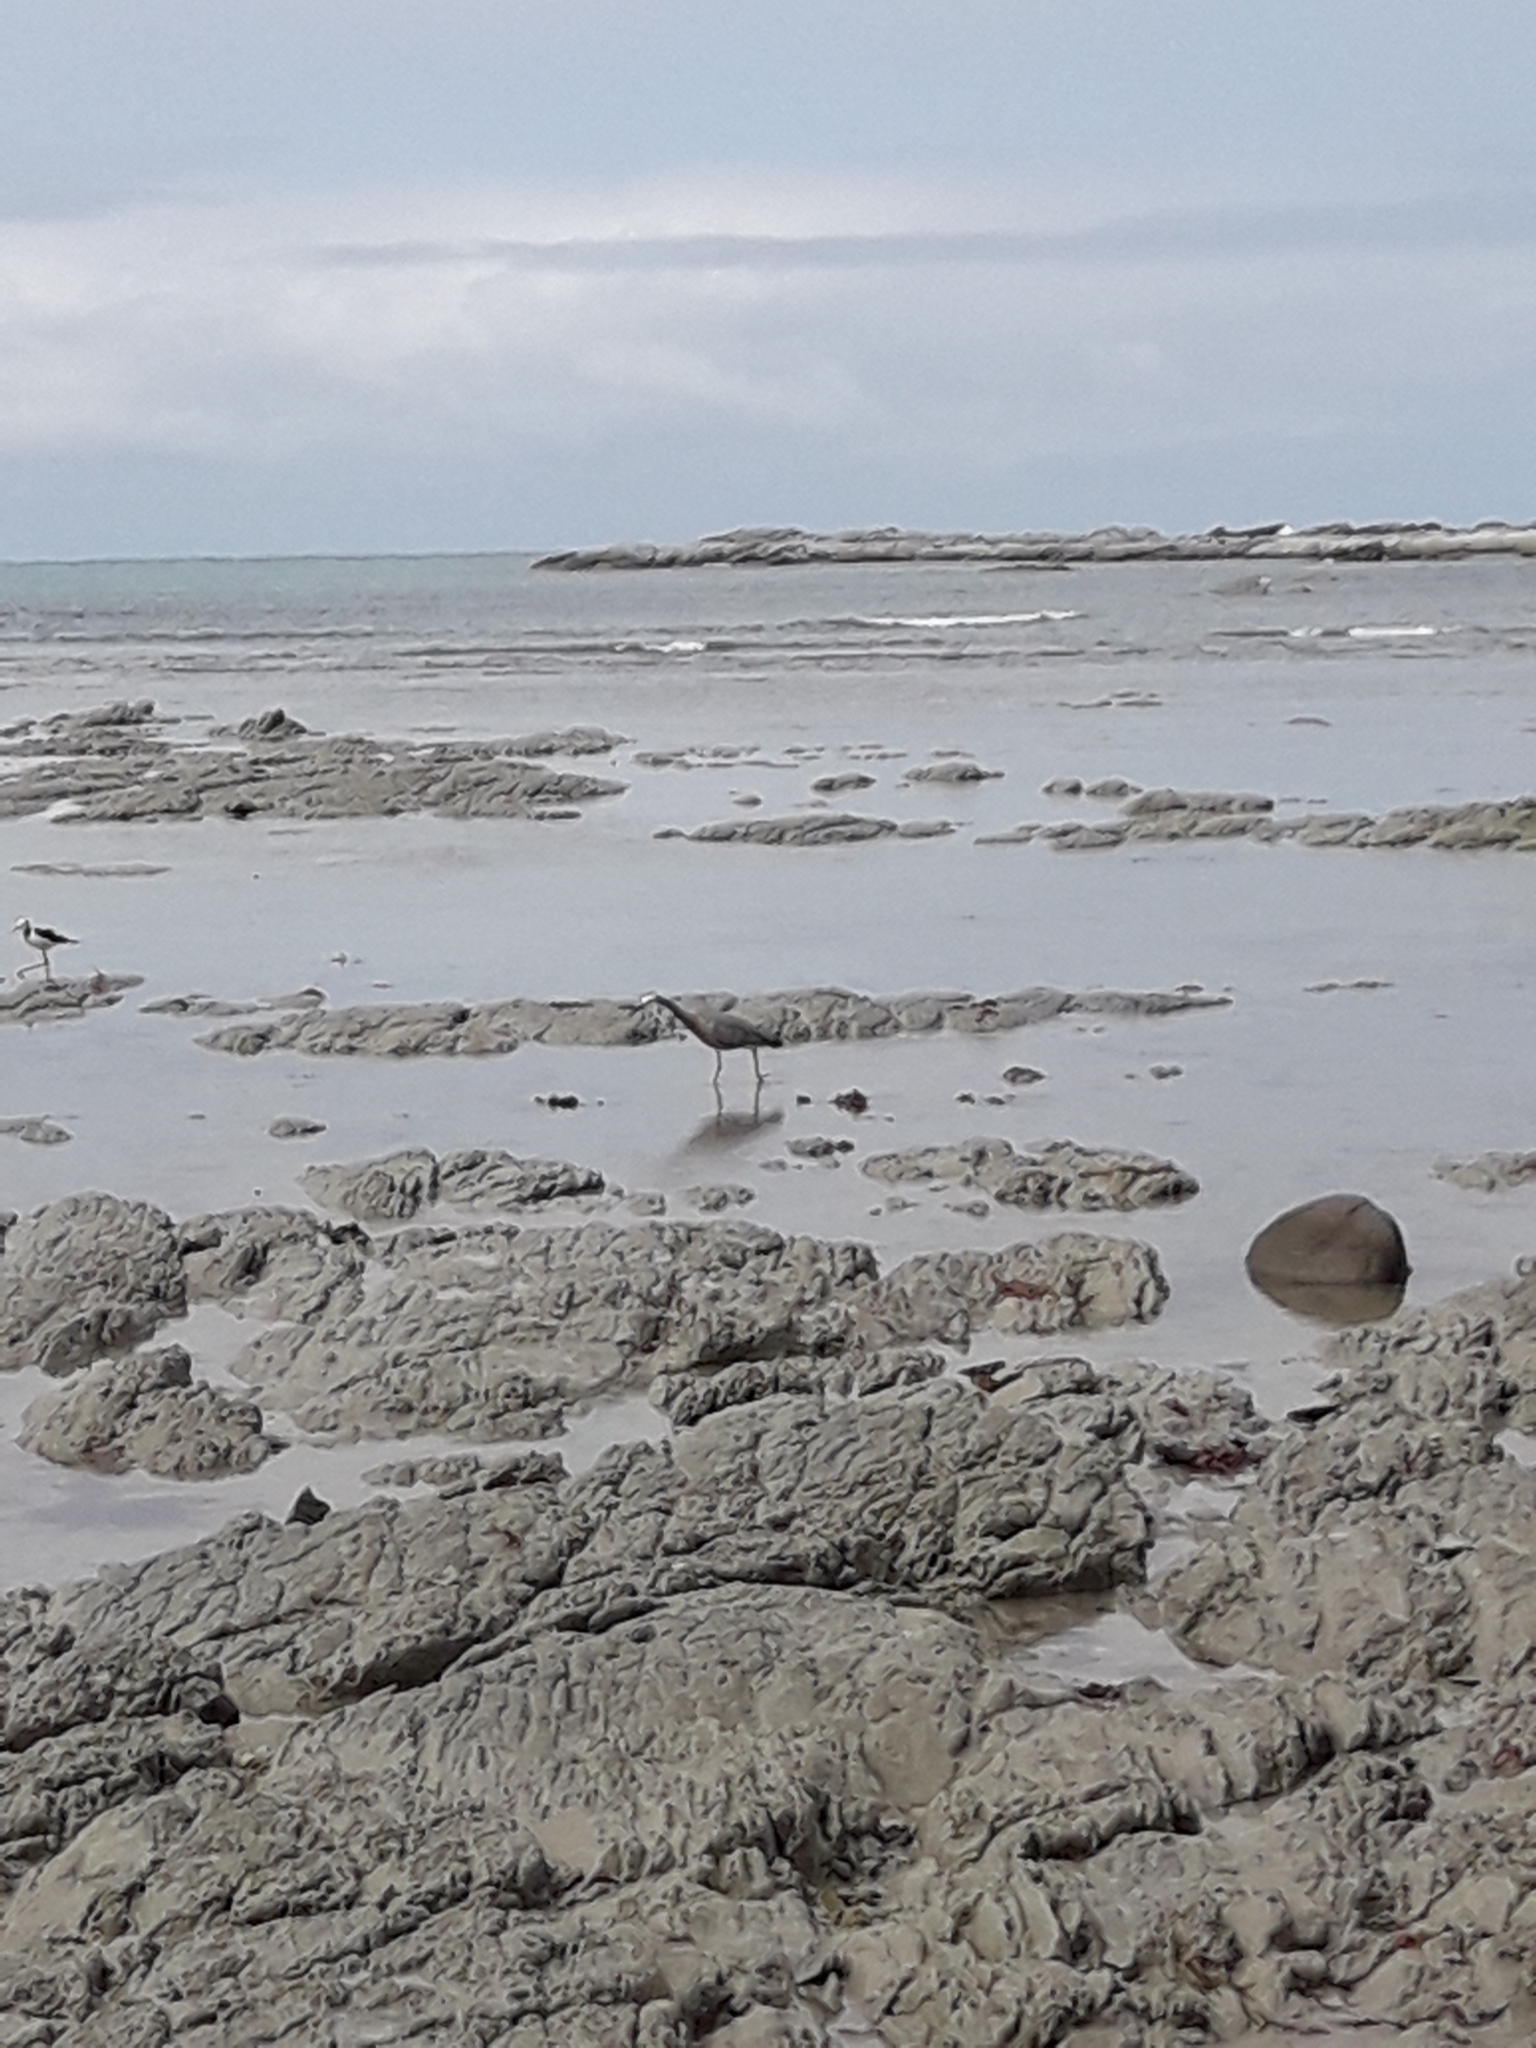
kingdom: Animalia
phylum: Chordata
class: Aves
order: Pelecaniformes
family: Ardeidae
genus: Egretta
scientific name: Egretta novaehollandiae
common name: White-faced heron
